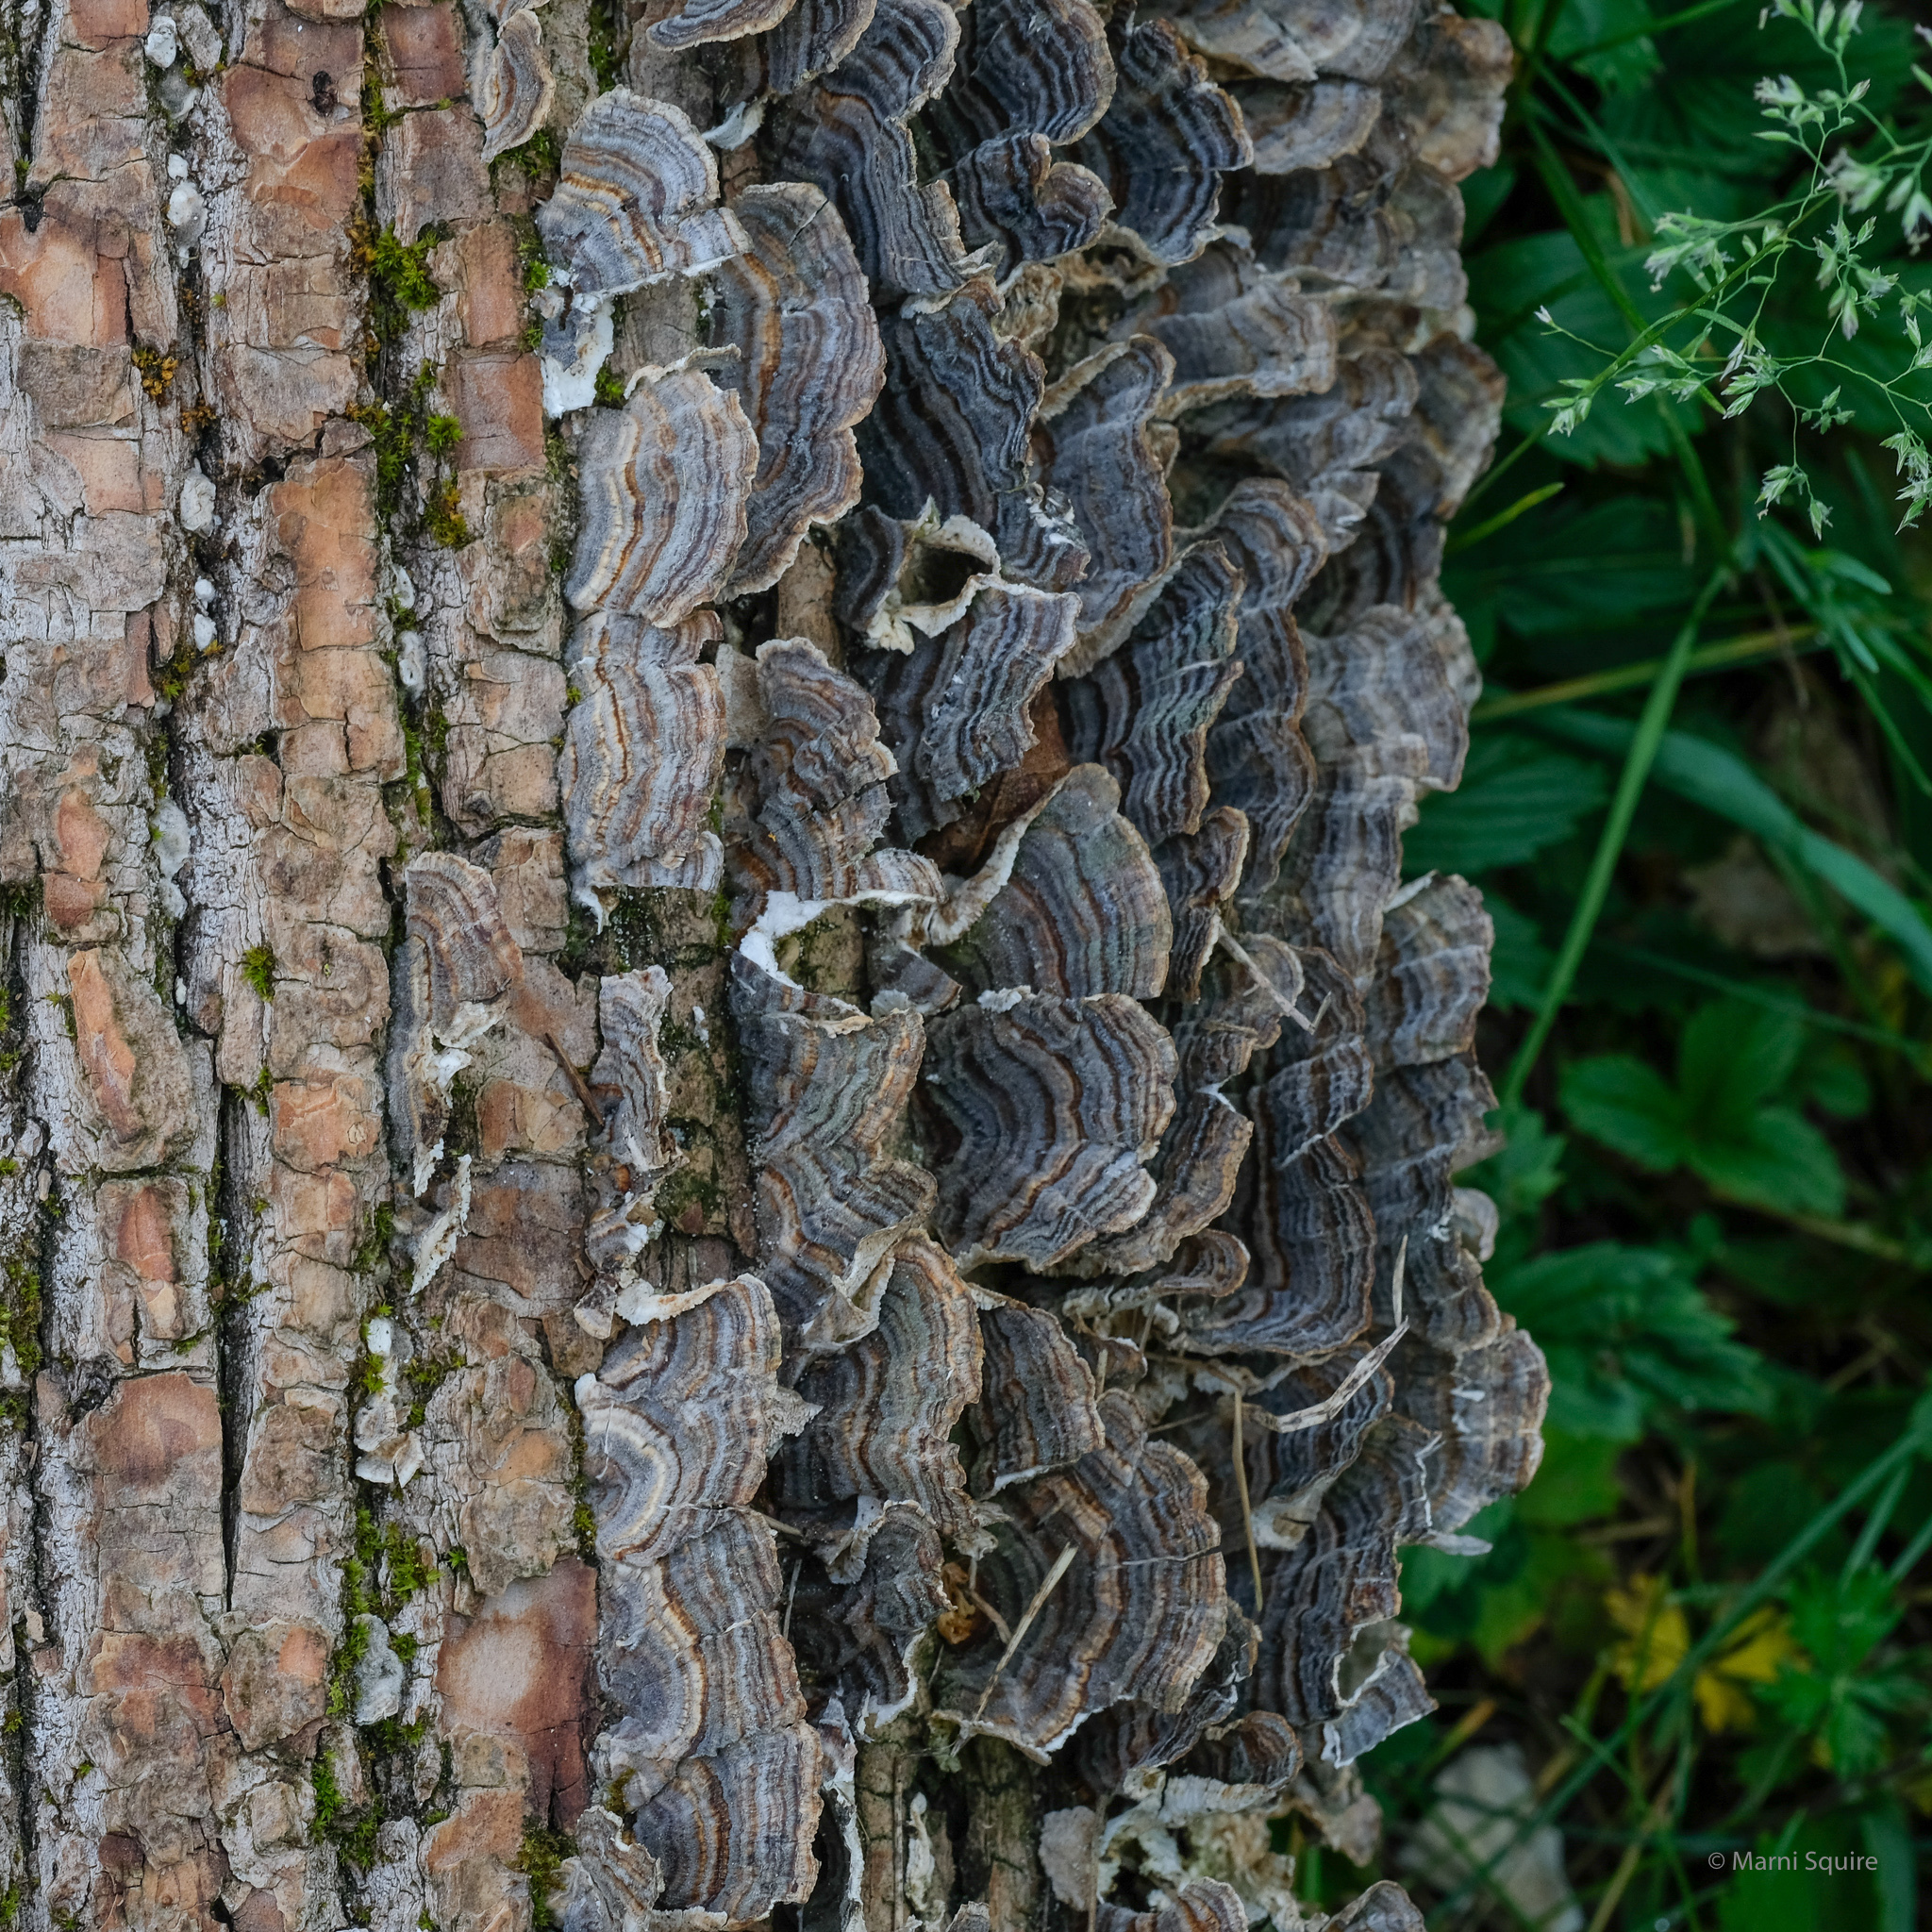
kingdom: Fungi
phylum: Basidiomycota
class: Agaricomycetes
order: Polyporales
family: Polyporaceae
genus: Trametes
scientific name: Trametes versicolor
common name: Turkeytail
